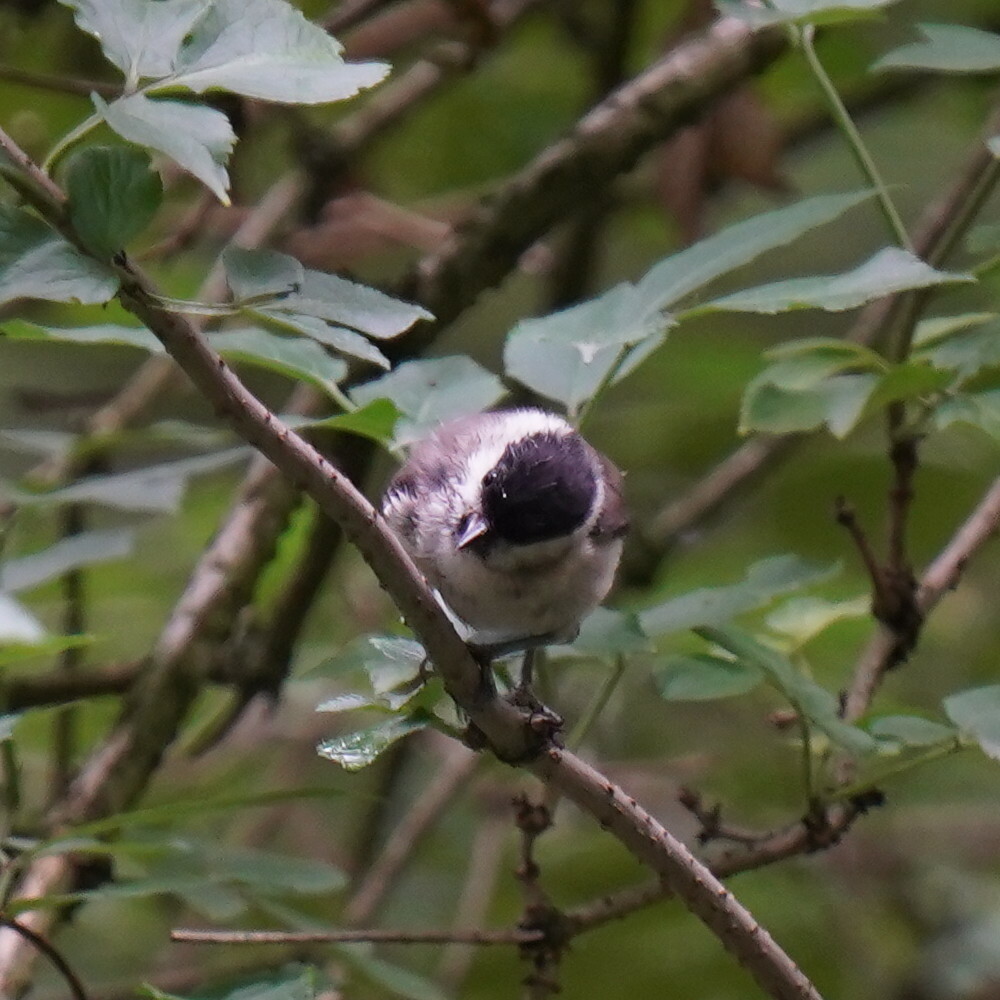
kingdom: Animalia
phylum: Chordata
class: Aves
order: Passeriformes
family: Paridae
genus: Poecile
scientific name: Poecile palustris
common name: Marsh tit
